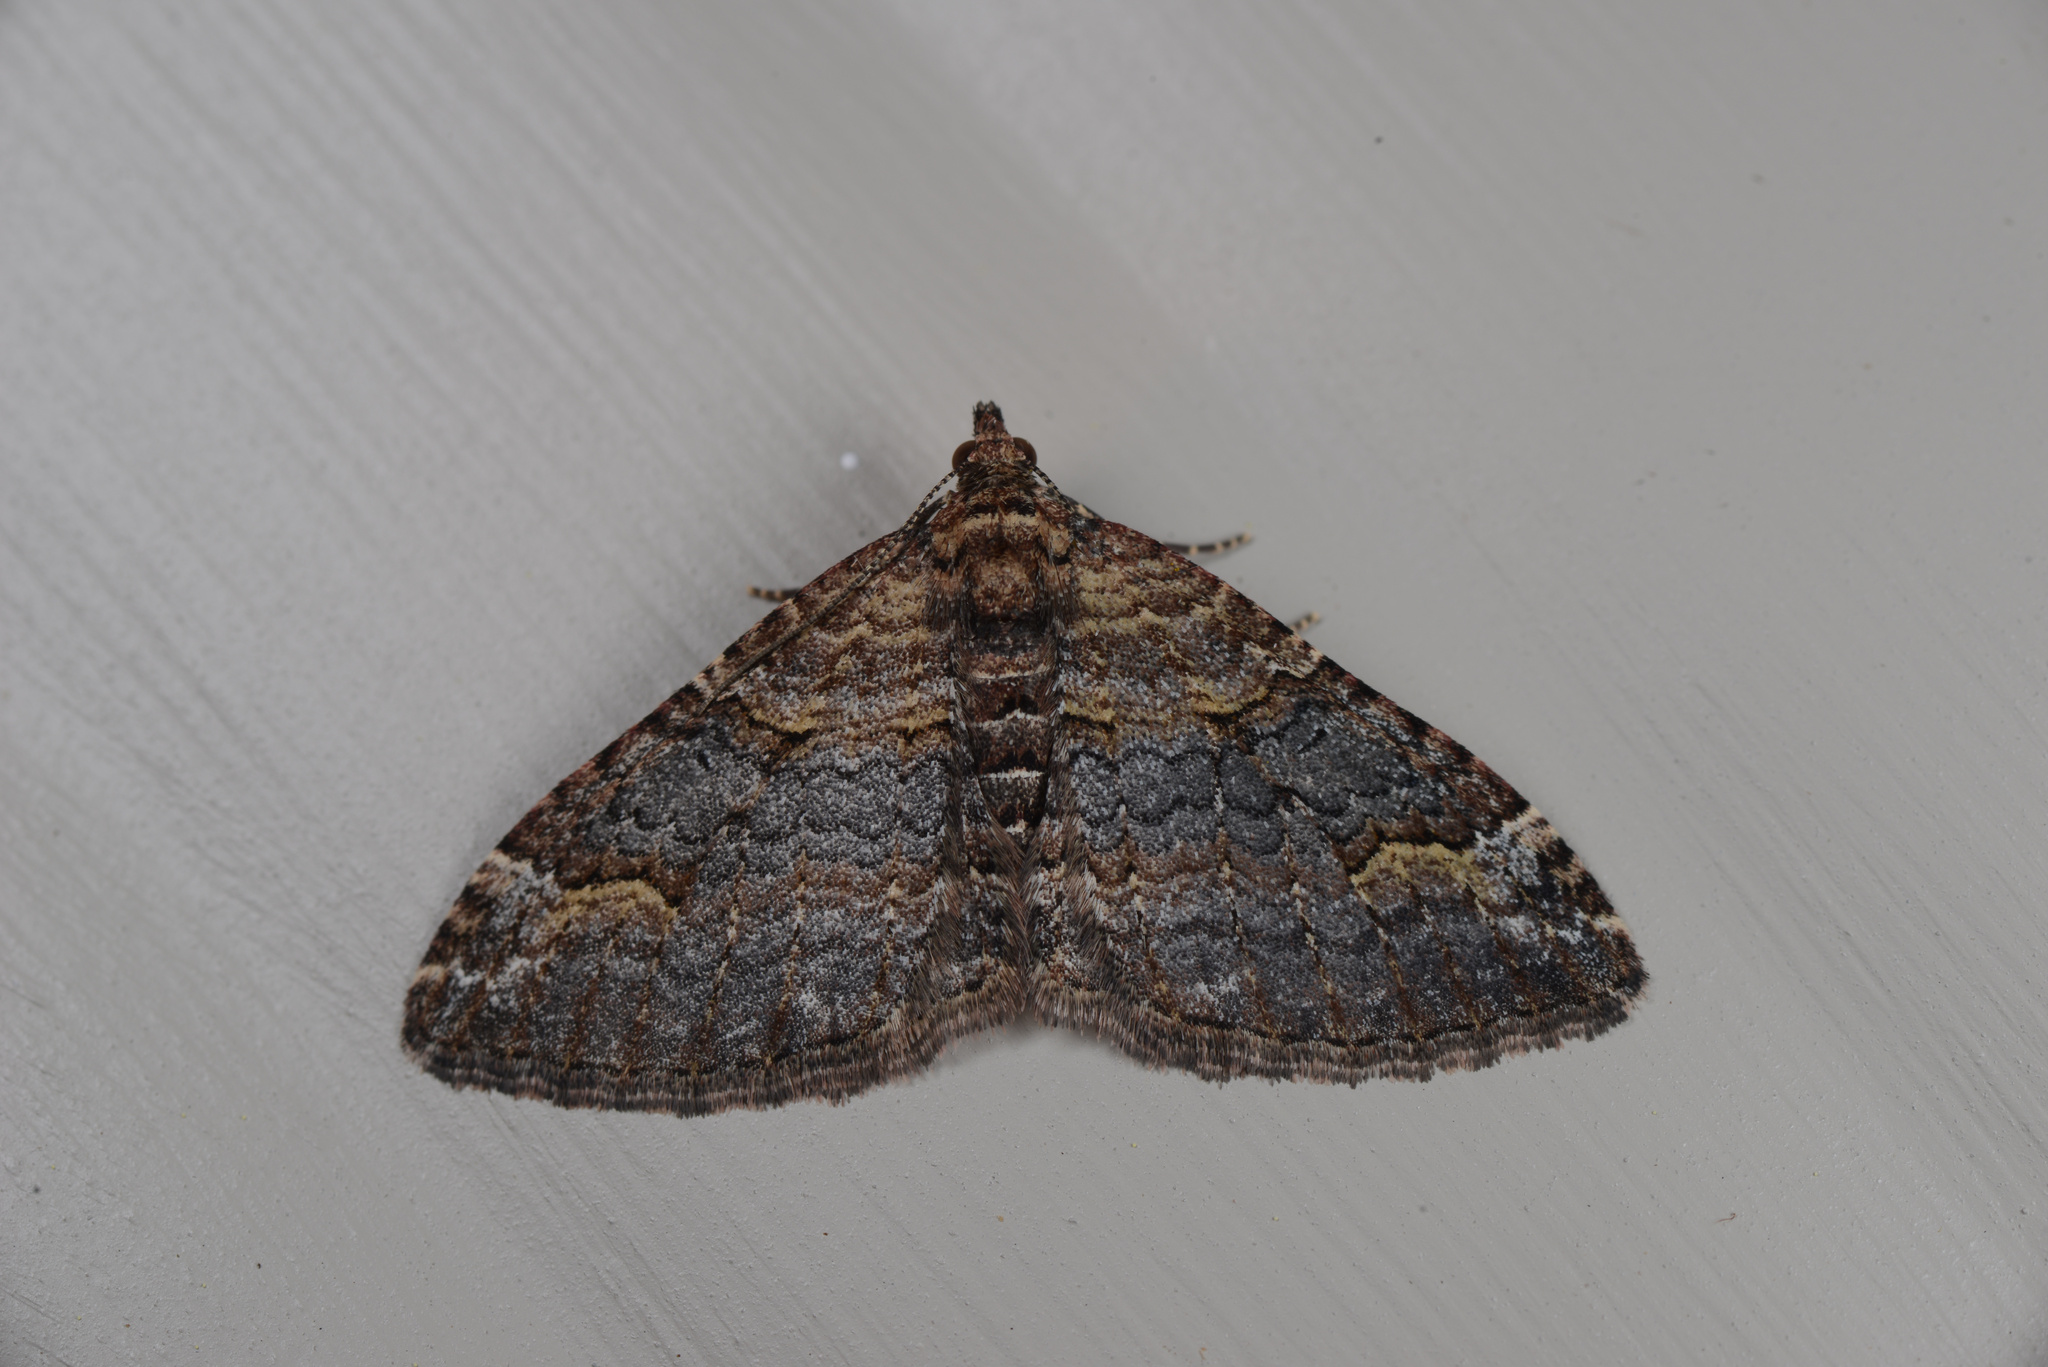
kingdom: Animalia
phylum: Arthropoda
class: Insecta
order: Lepidoptera
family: Geometridae
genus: Epyaxa
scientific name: Epyaxa lucidata
